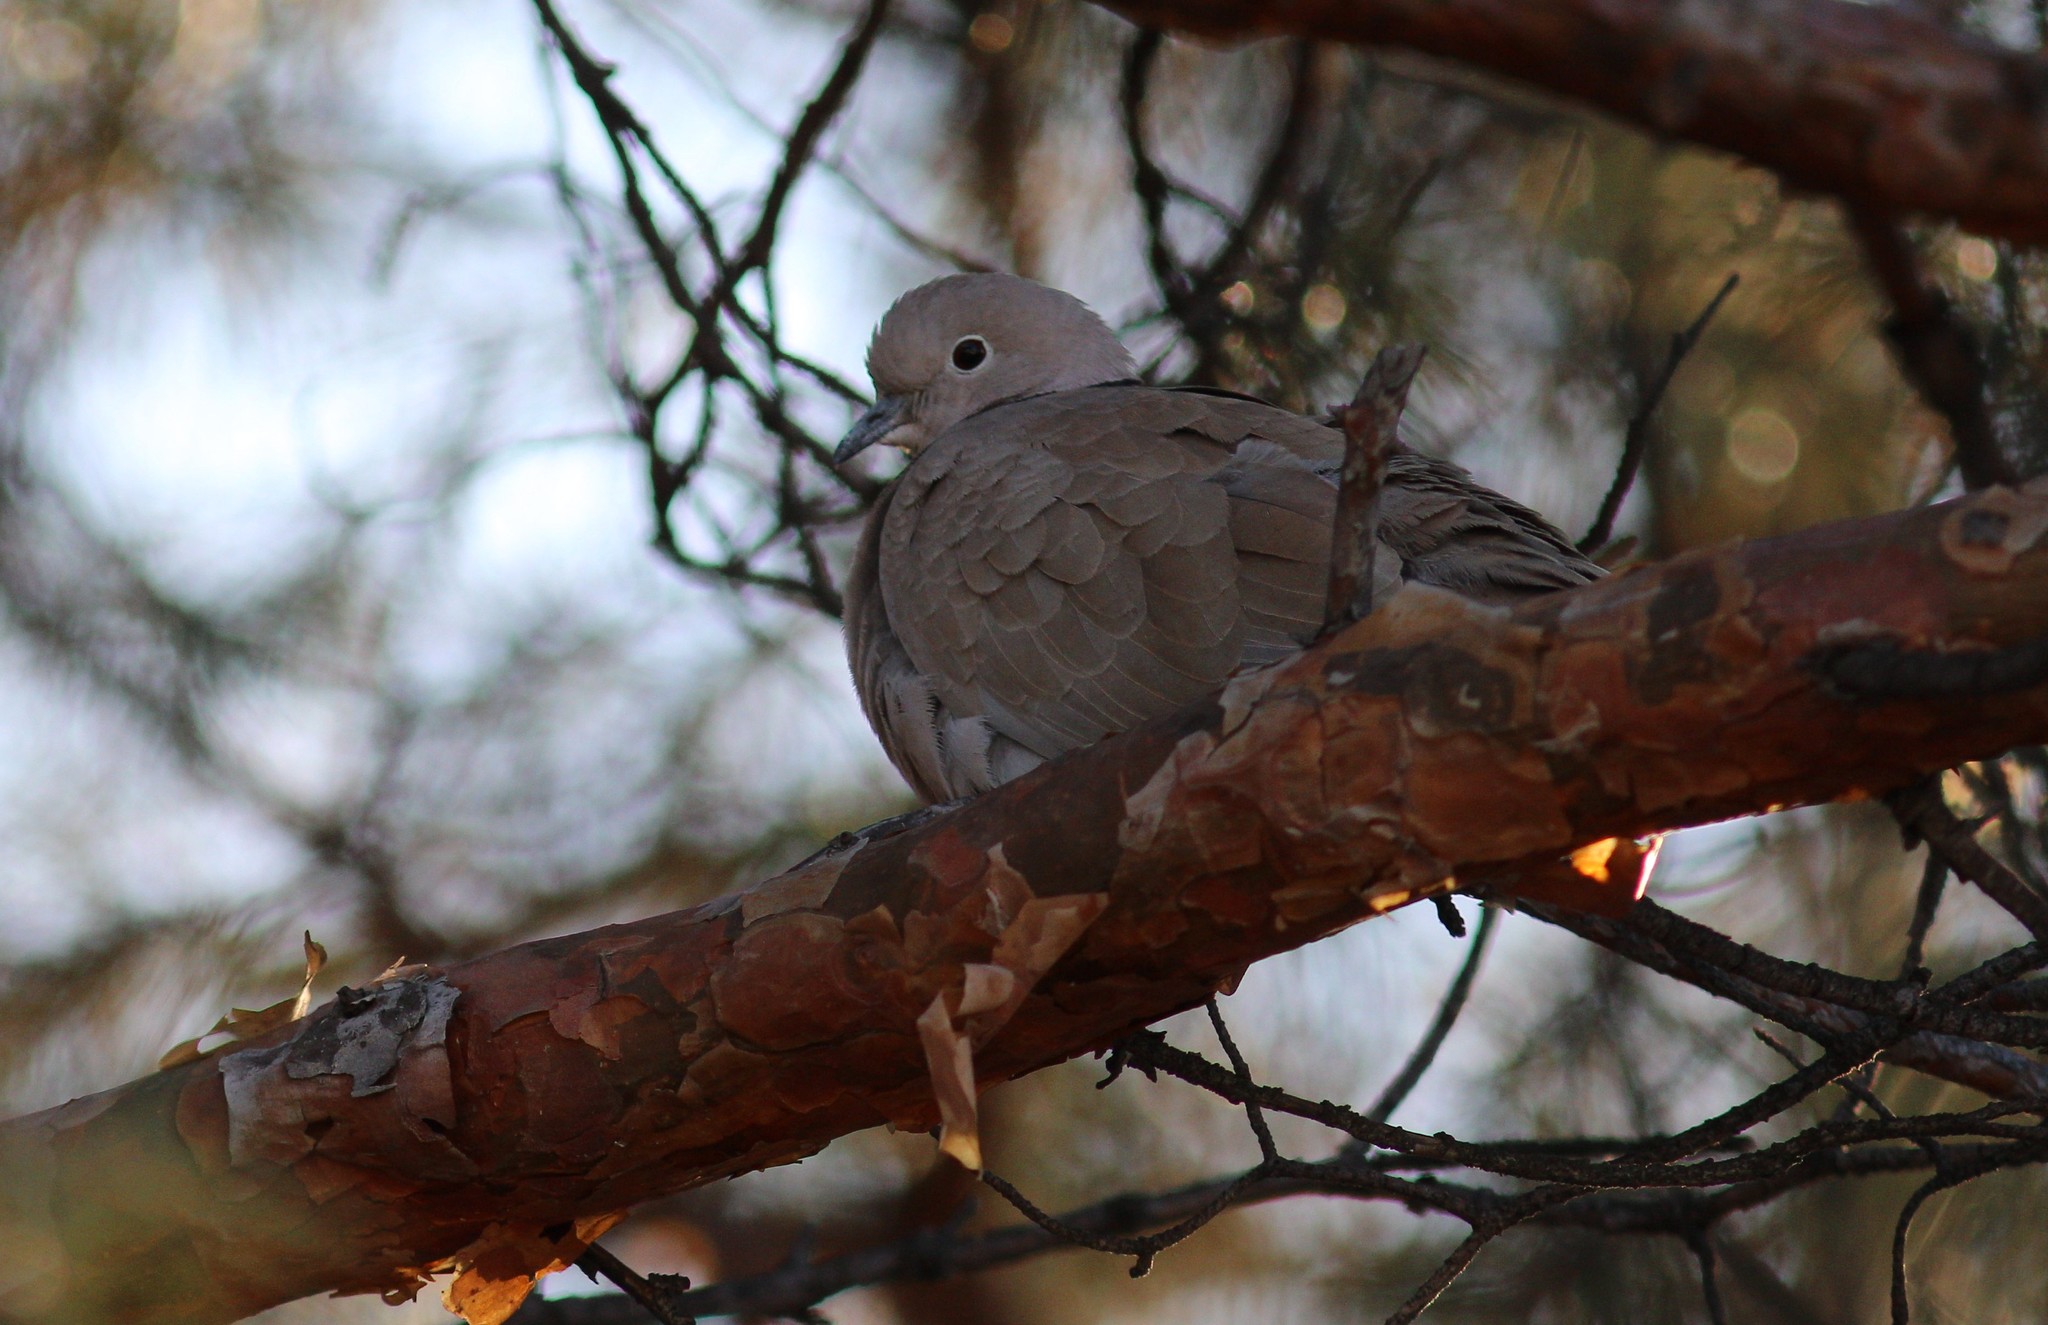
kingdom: Animalia
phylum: Chordata
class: Aves
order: Columbiformes
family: Columbidae
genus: Streptopelia
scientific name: Streptopelia decaocto
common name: Eurasian collared dove
